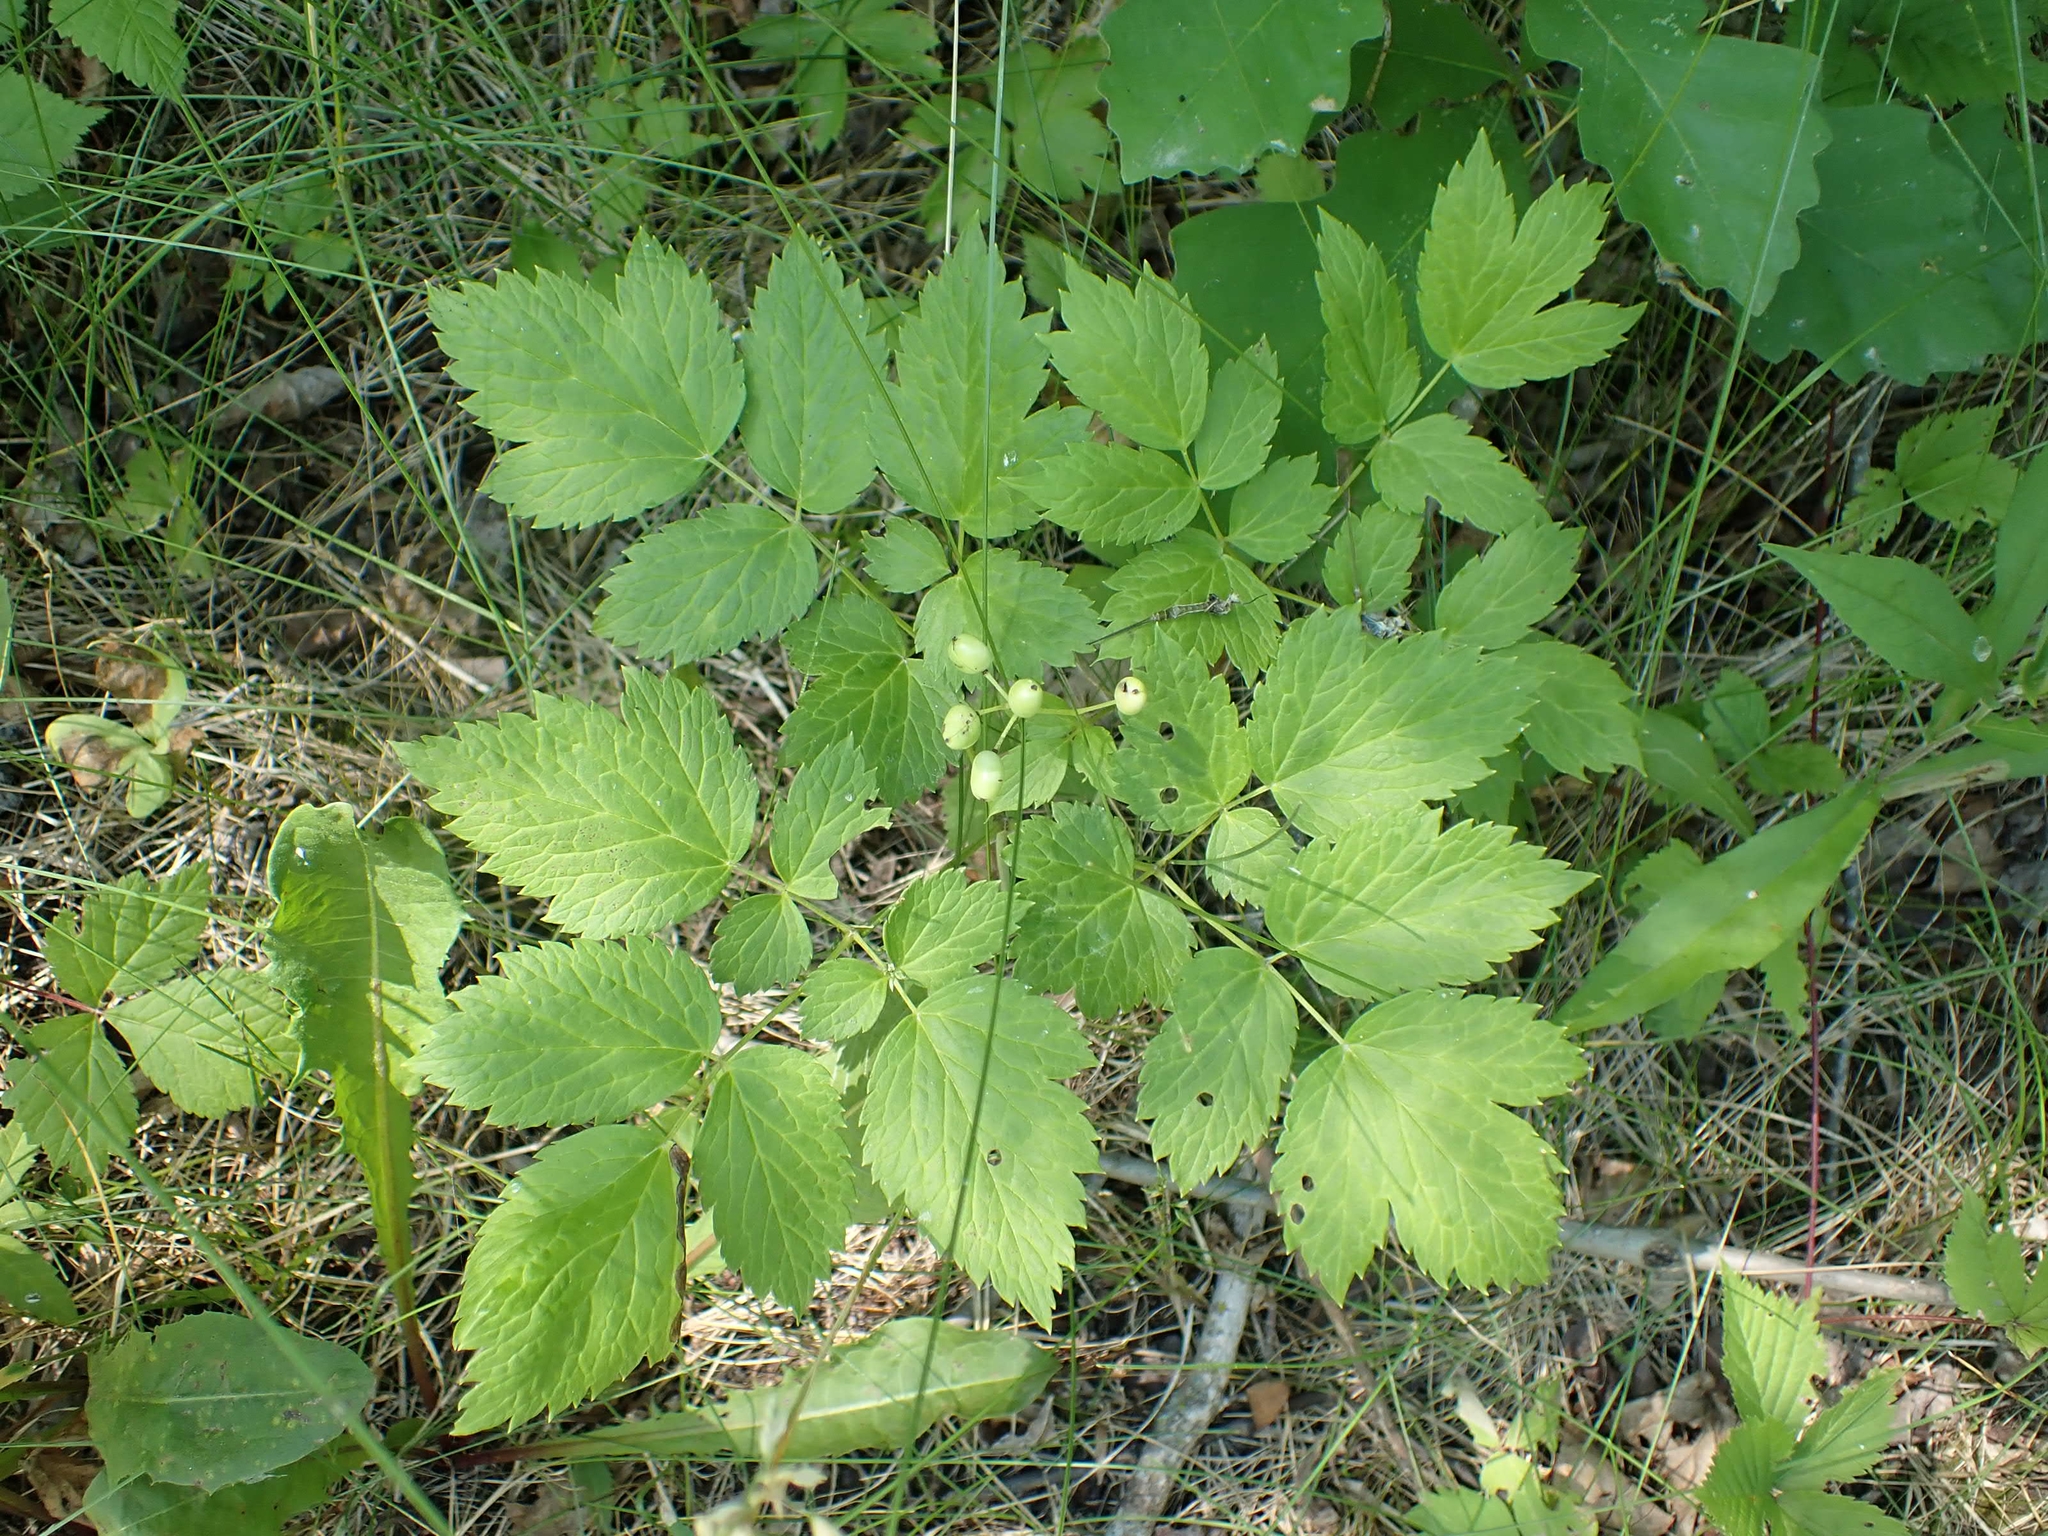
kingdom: Plantae
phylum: Tracheophyta
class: Magnoliopsida
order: Ranunculales
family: Ranunculaceae
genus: Actaea
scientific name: Actaea rubra
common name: Red baneberry
